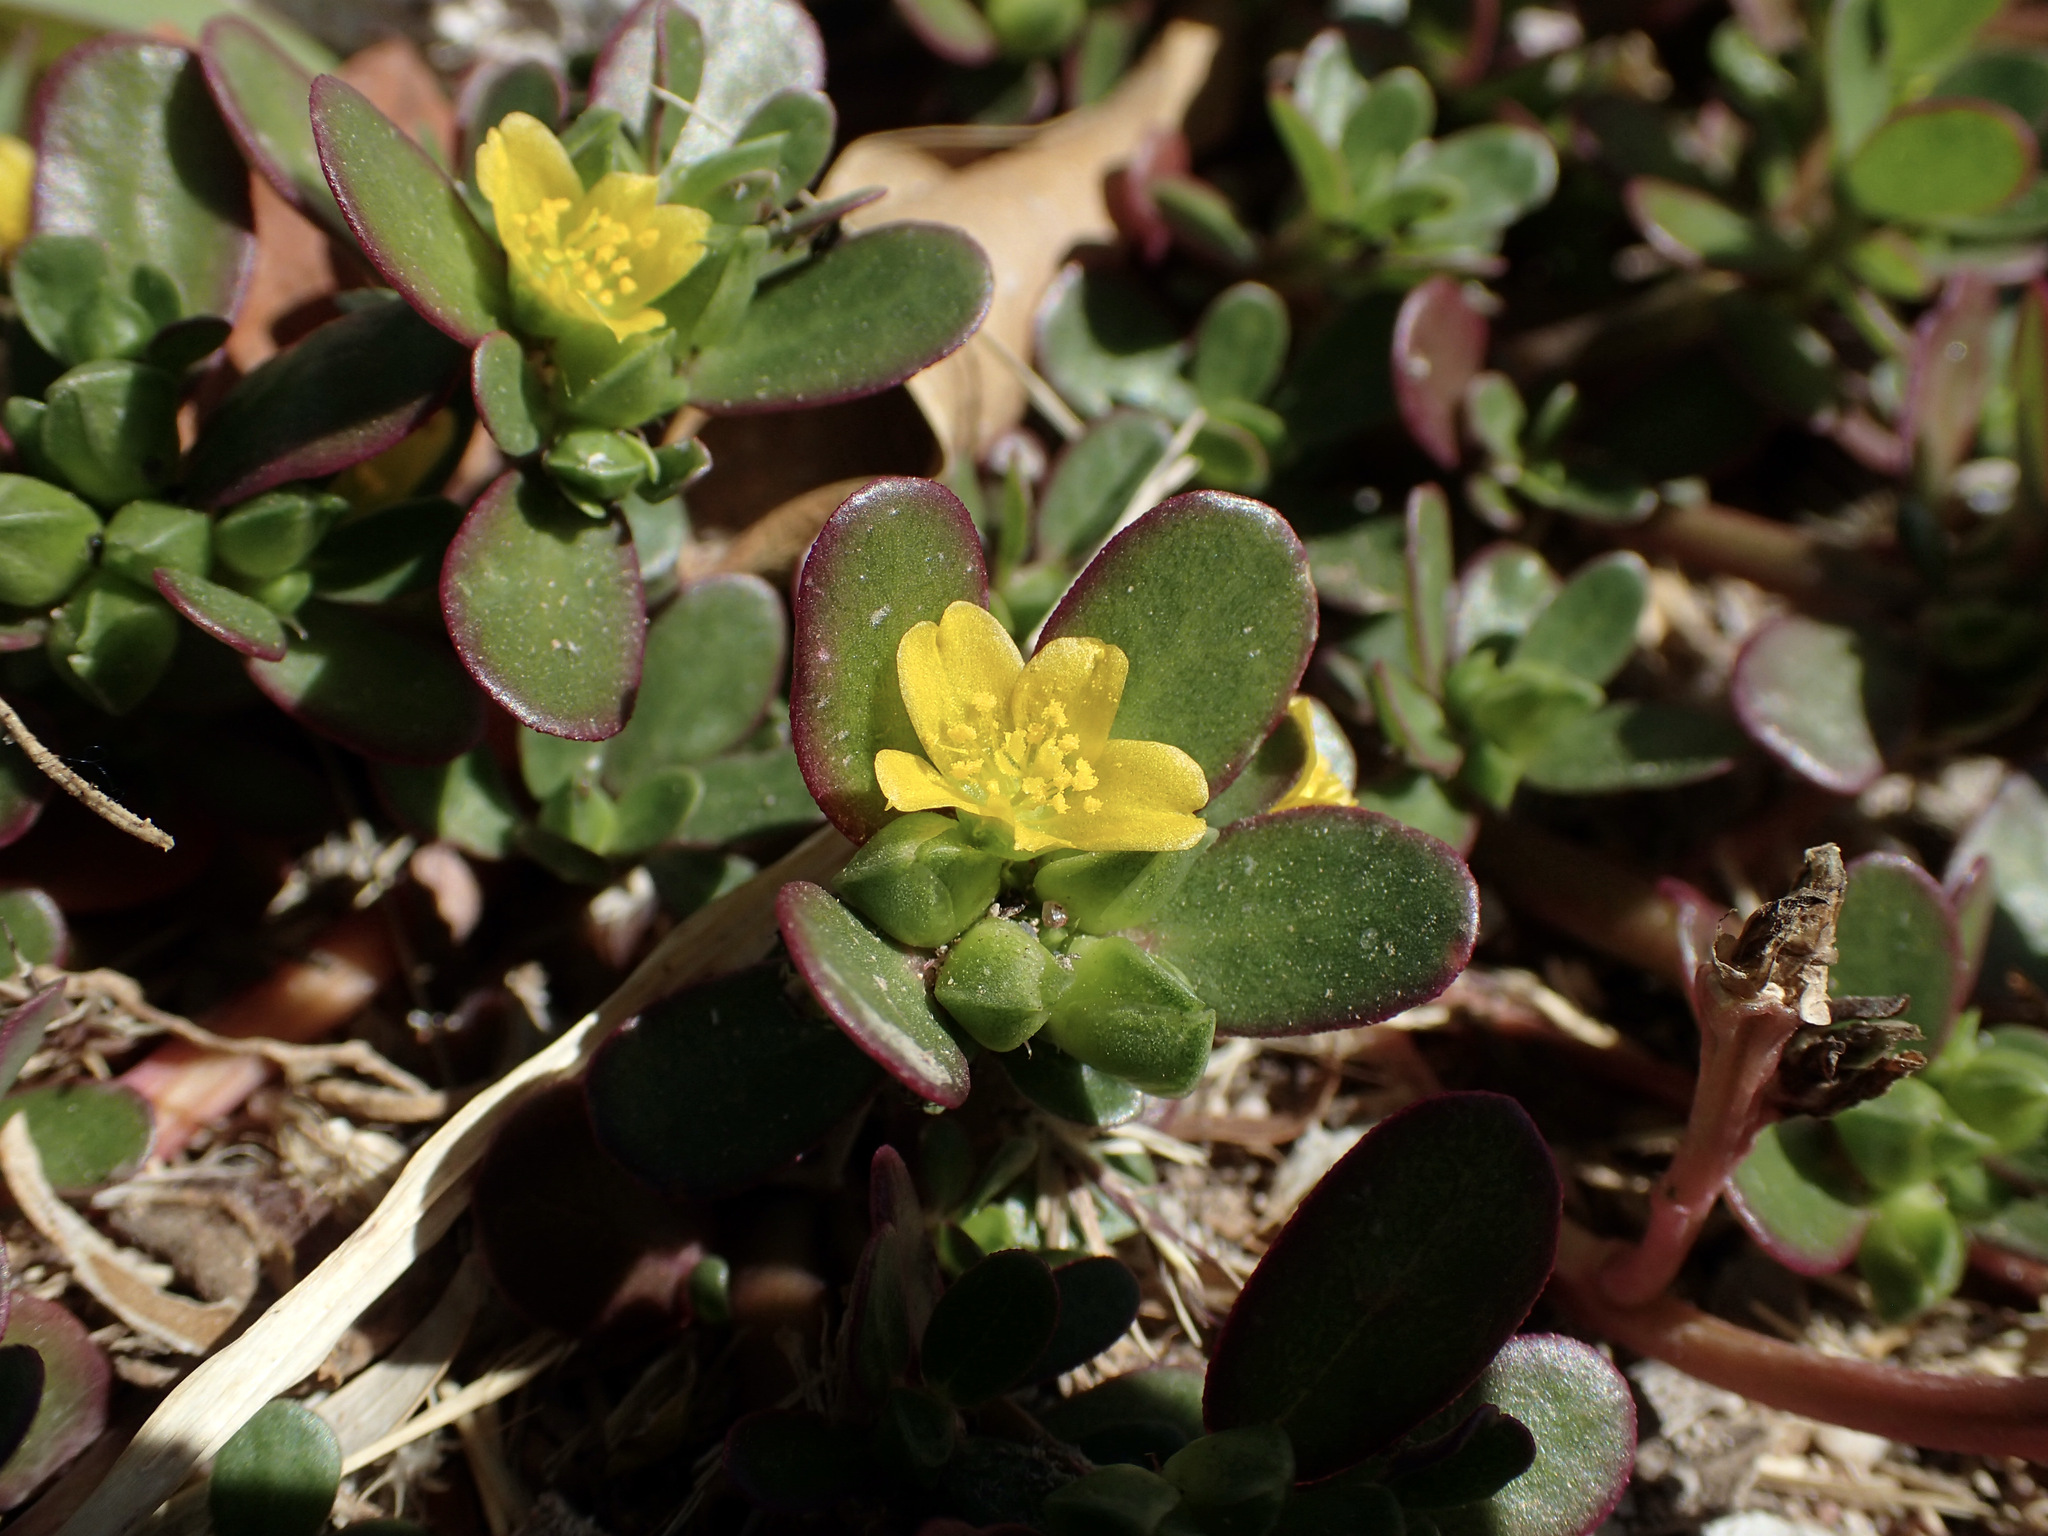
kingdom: Plantae
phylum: Tracheophyta
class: Magnoliopsida
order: Caryophyllales
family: Portulacaceae
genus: Portulaca
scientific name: Portulaca oleracea
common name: Common purslane
